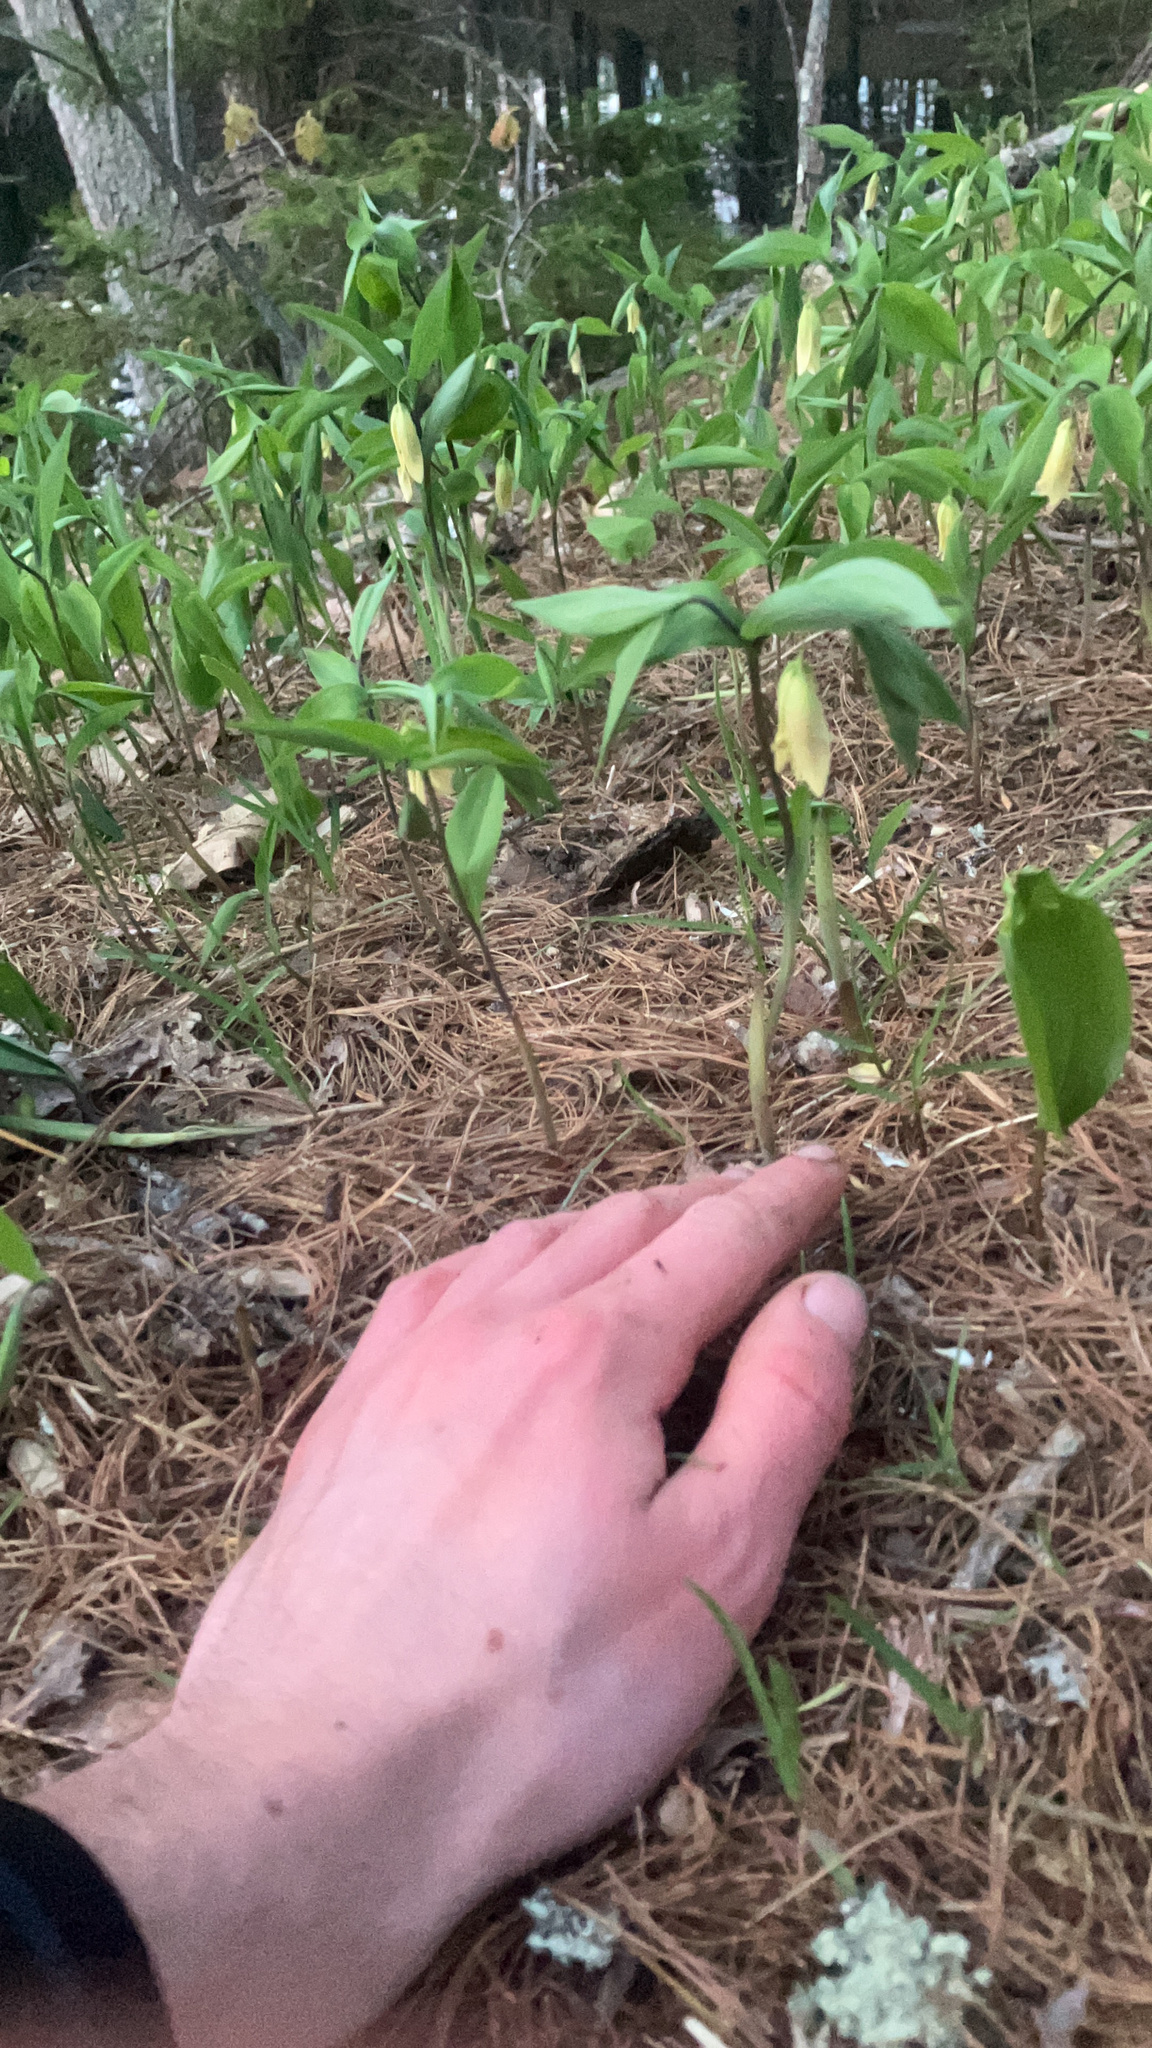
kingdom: Plantae
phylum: Tracheophyta
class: Liliopsida
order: Liliales
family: Colchicaceae
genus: Uvularia
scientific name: Uvularia sessilifolia
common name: Straw-lily
